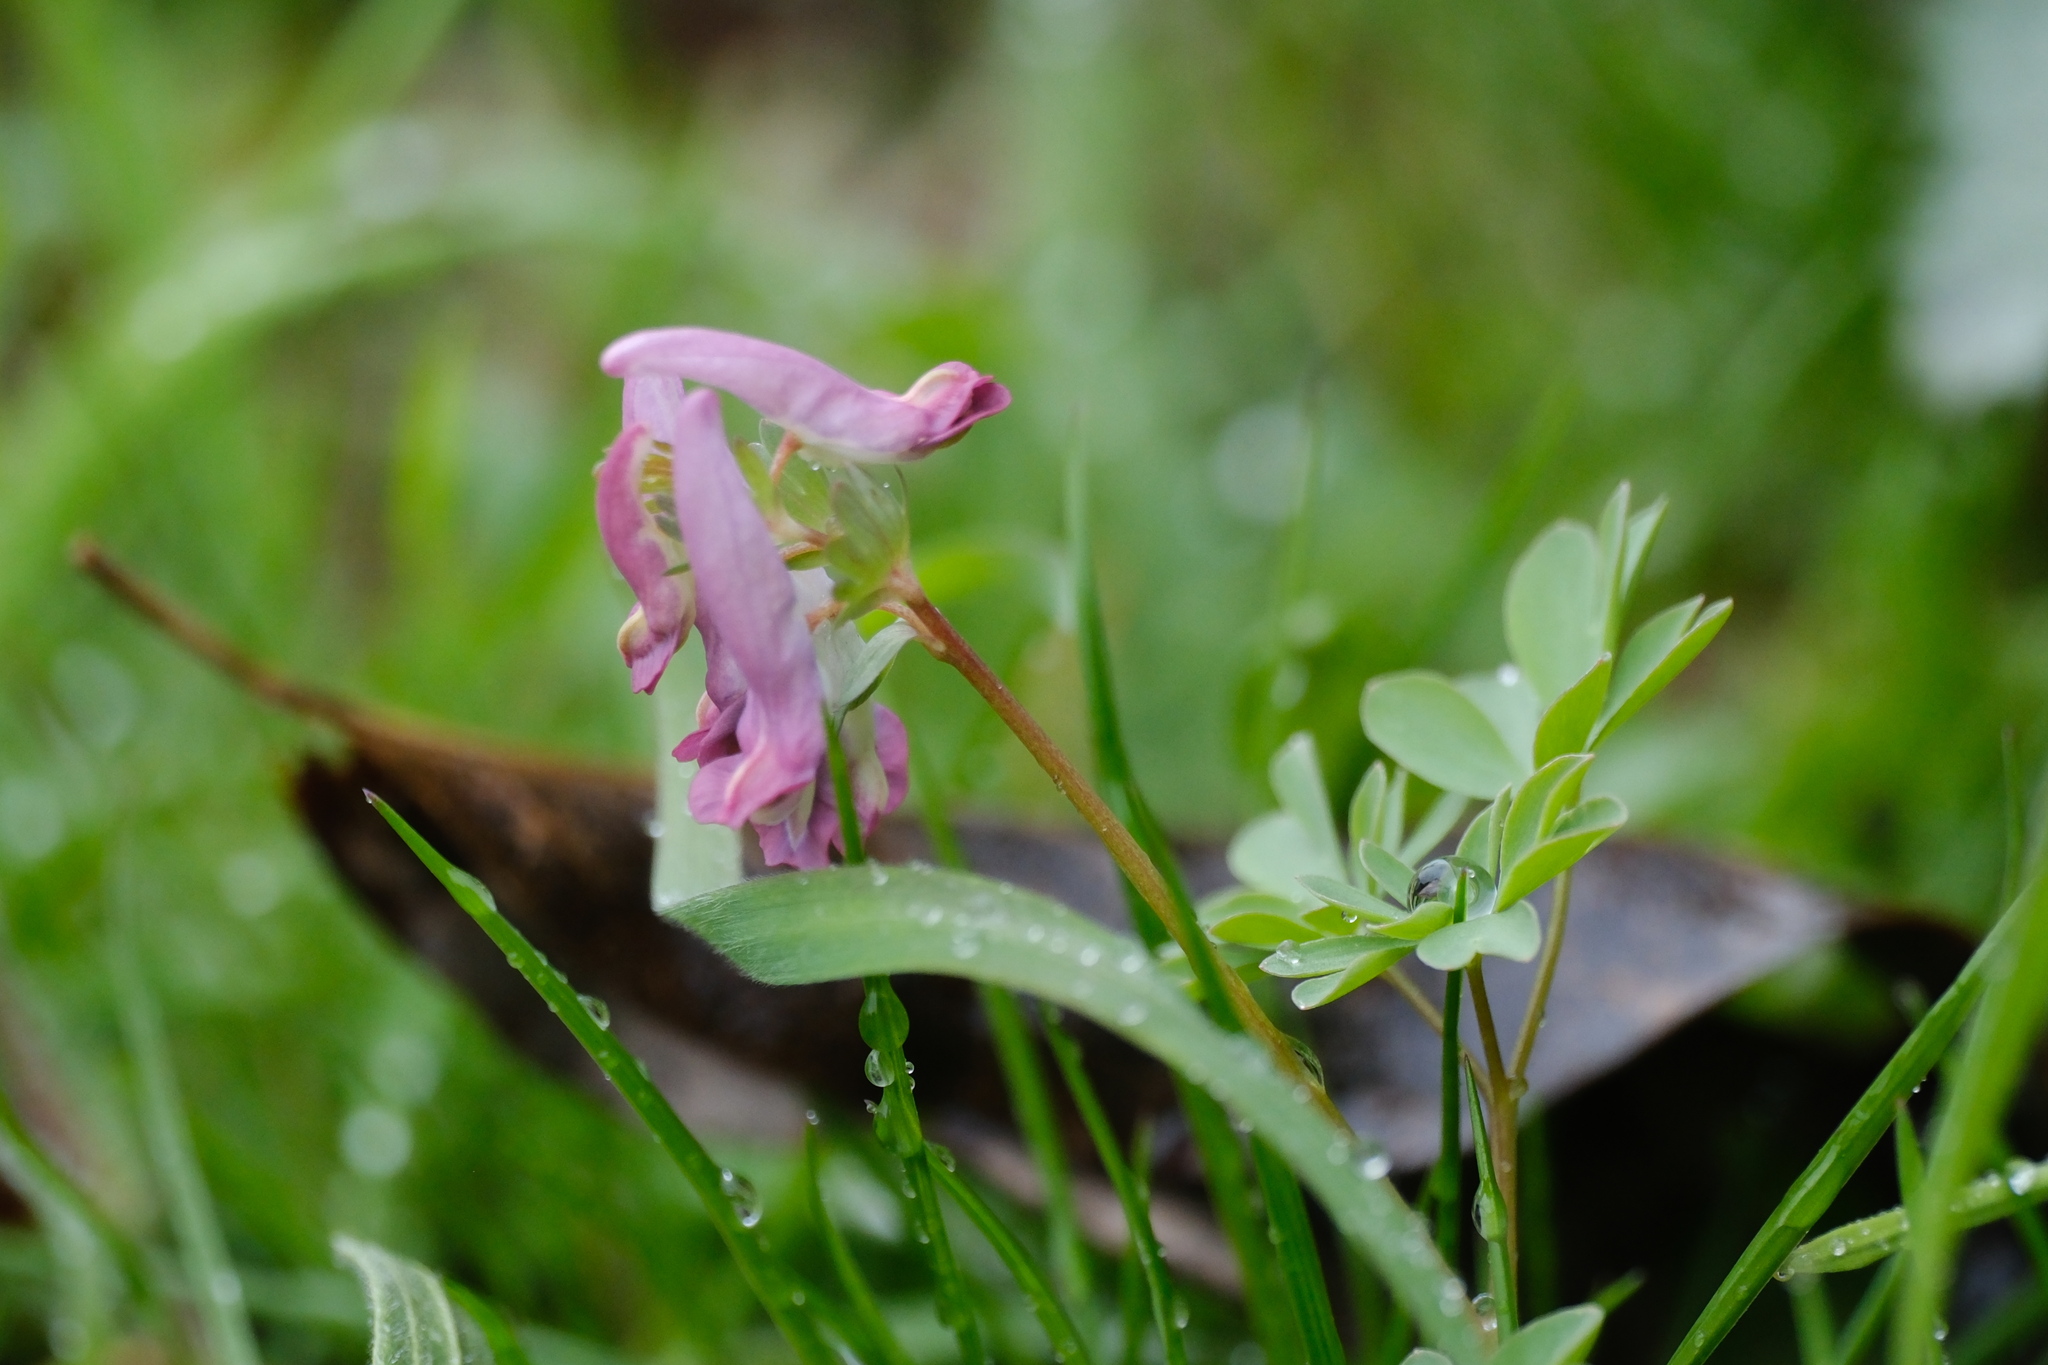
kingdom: Plantae
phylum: Tracheophyta
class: Magnoliopsida
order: Ranunculales
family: Papaveraceae
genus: Corydalis
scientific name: Corydalis solida
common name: Bird-in-a-bush
